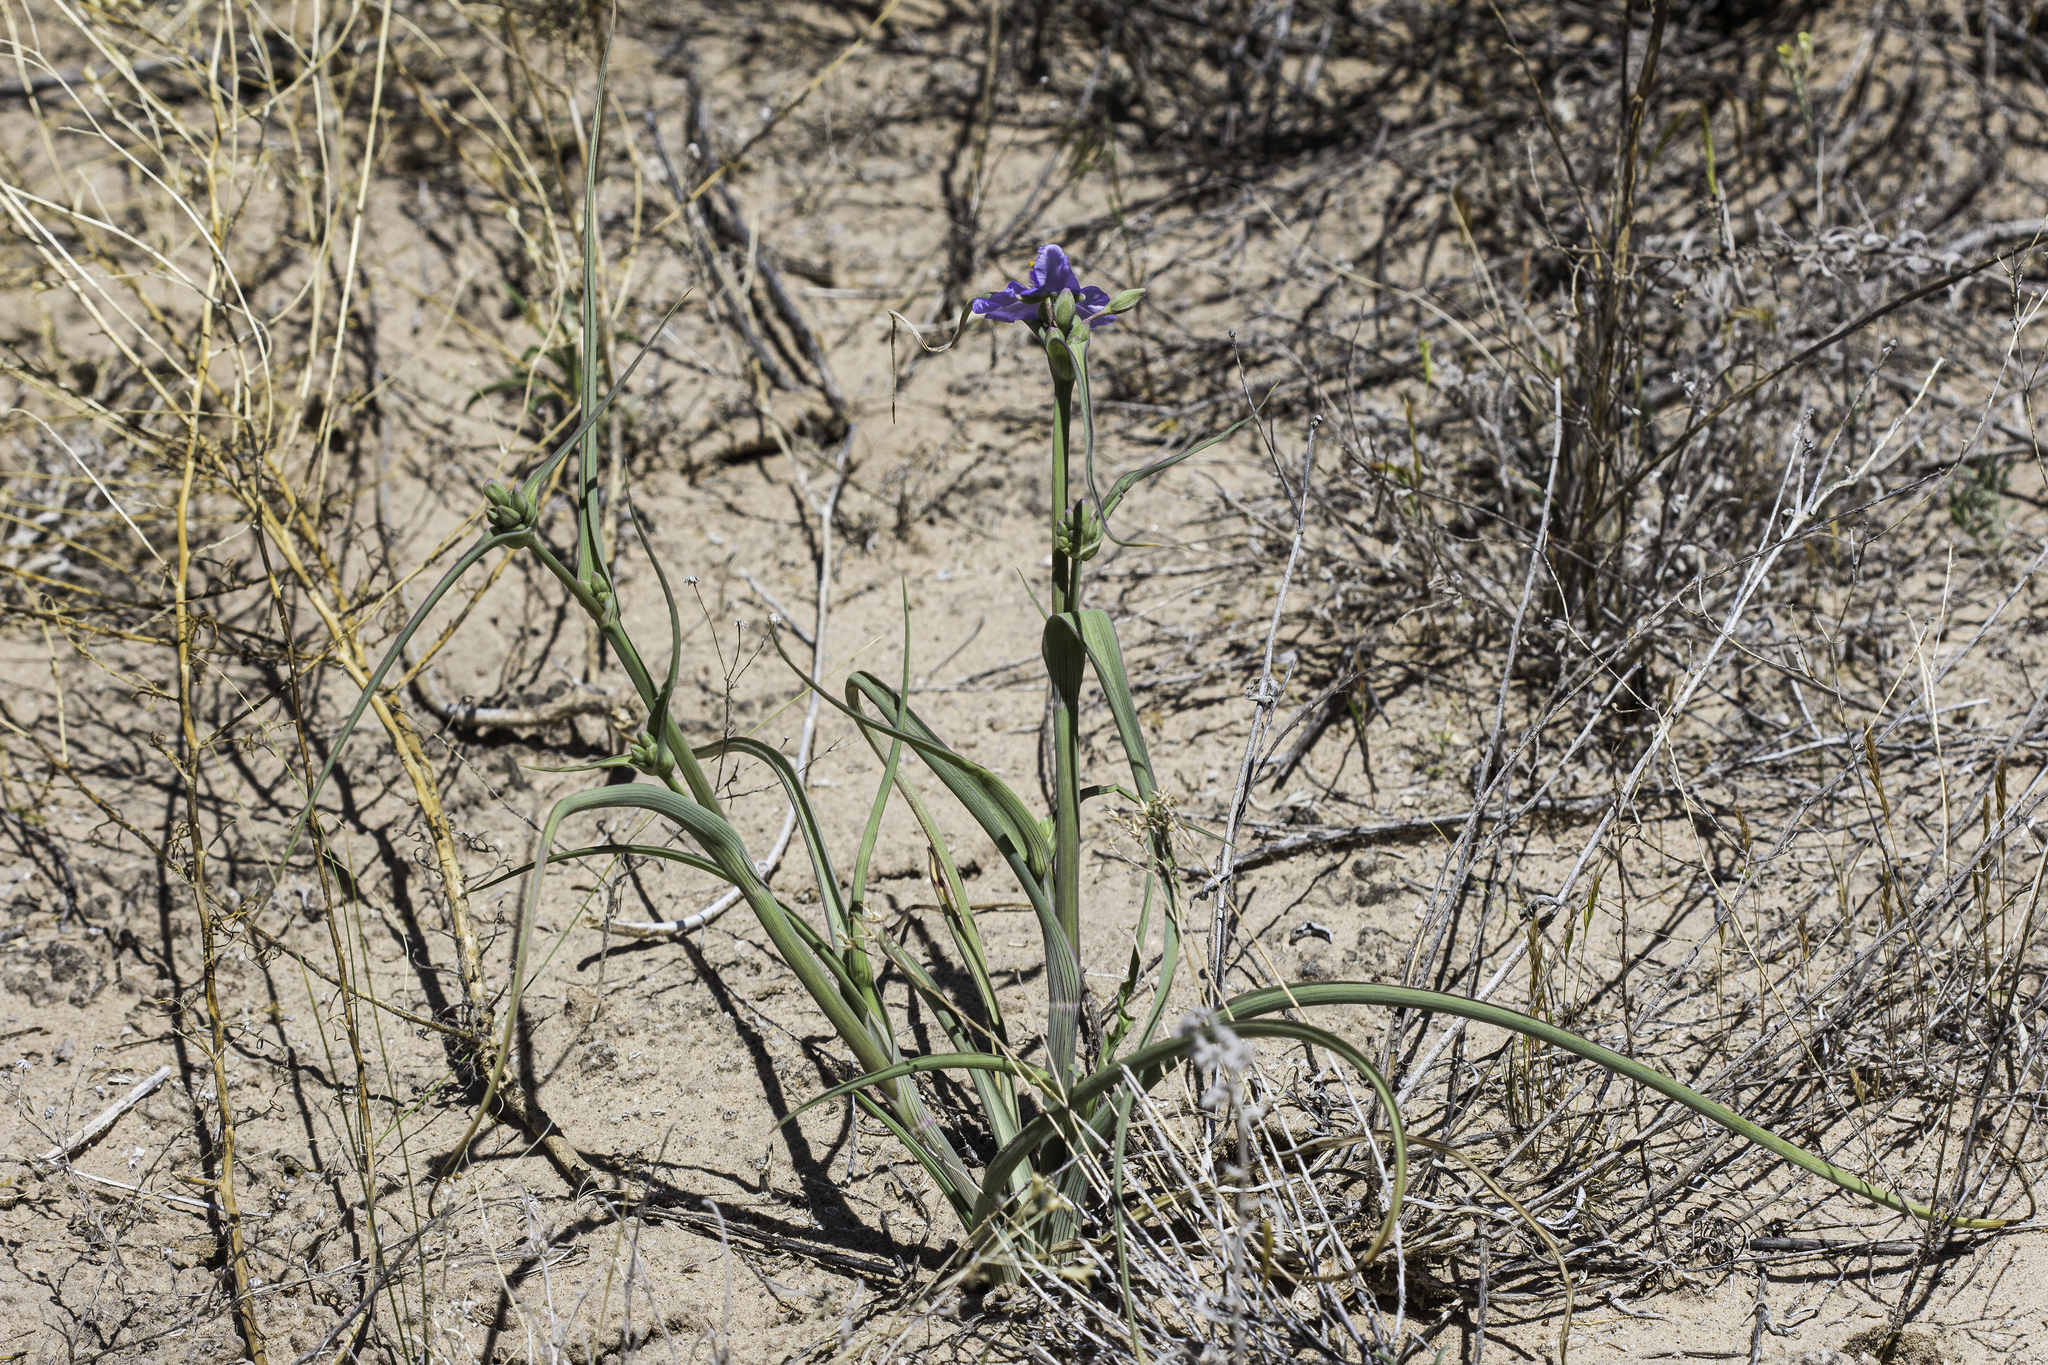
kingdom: Plantae
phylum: Tracheophyta
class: Liliopsida
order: Commelinales
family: Commelinaceae
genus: Tradescantia
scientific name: Tradescantia occidentalis
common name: Prairie spiderwort
